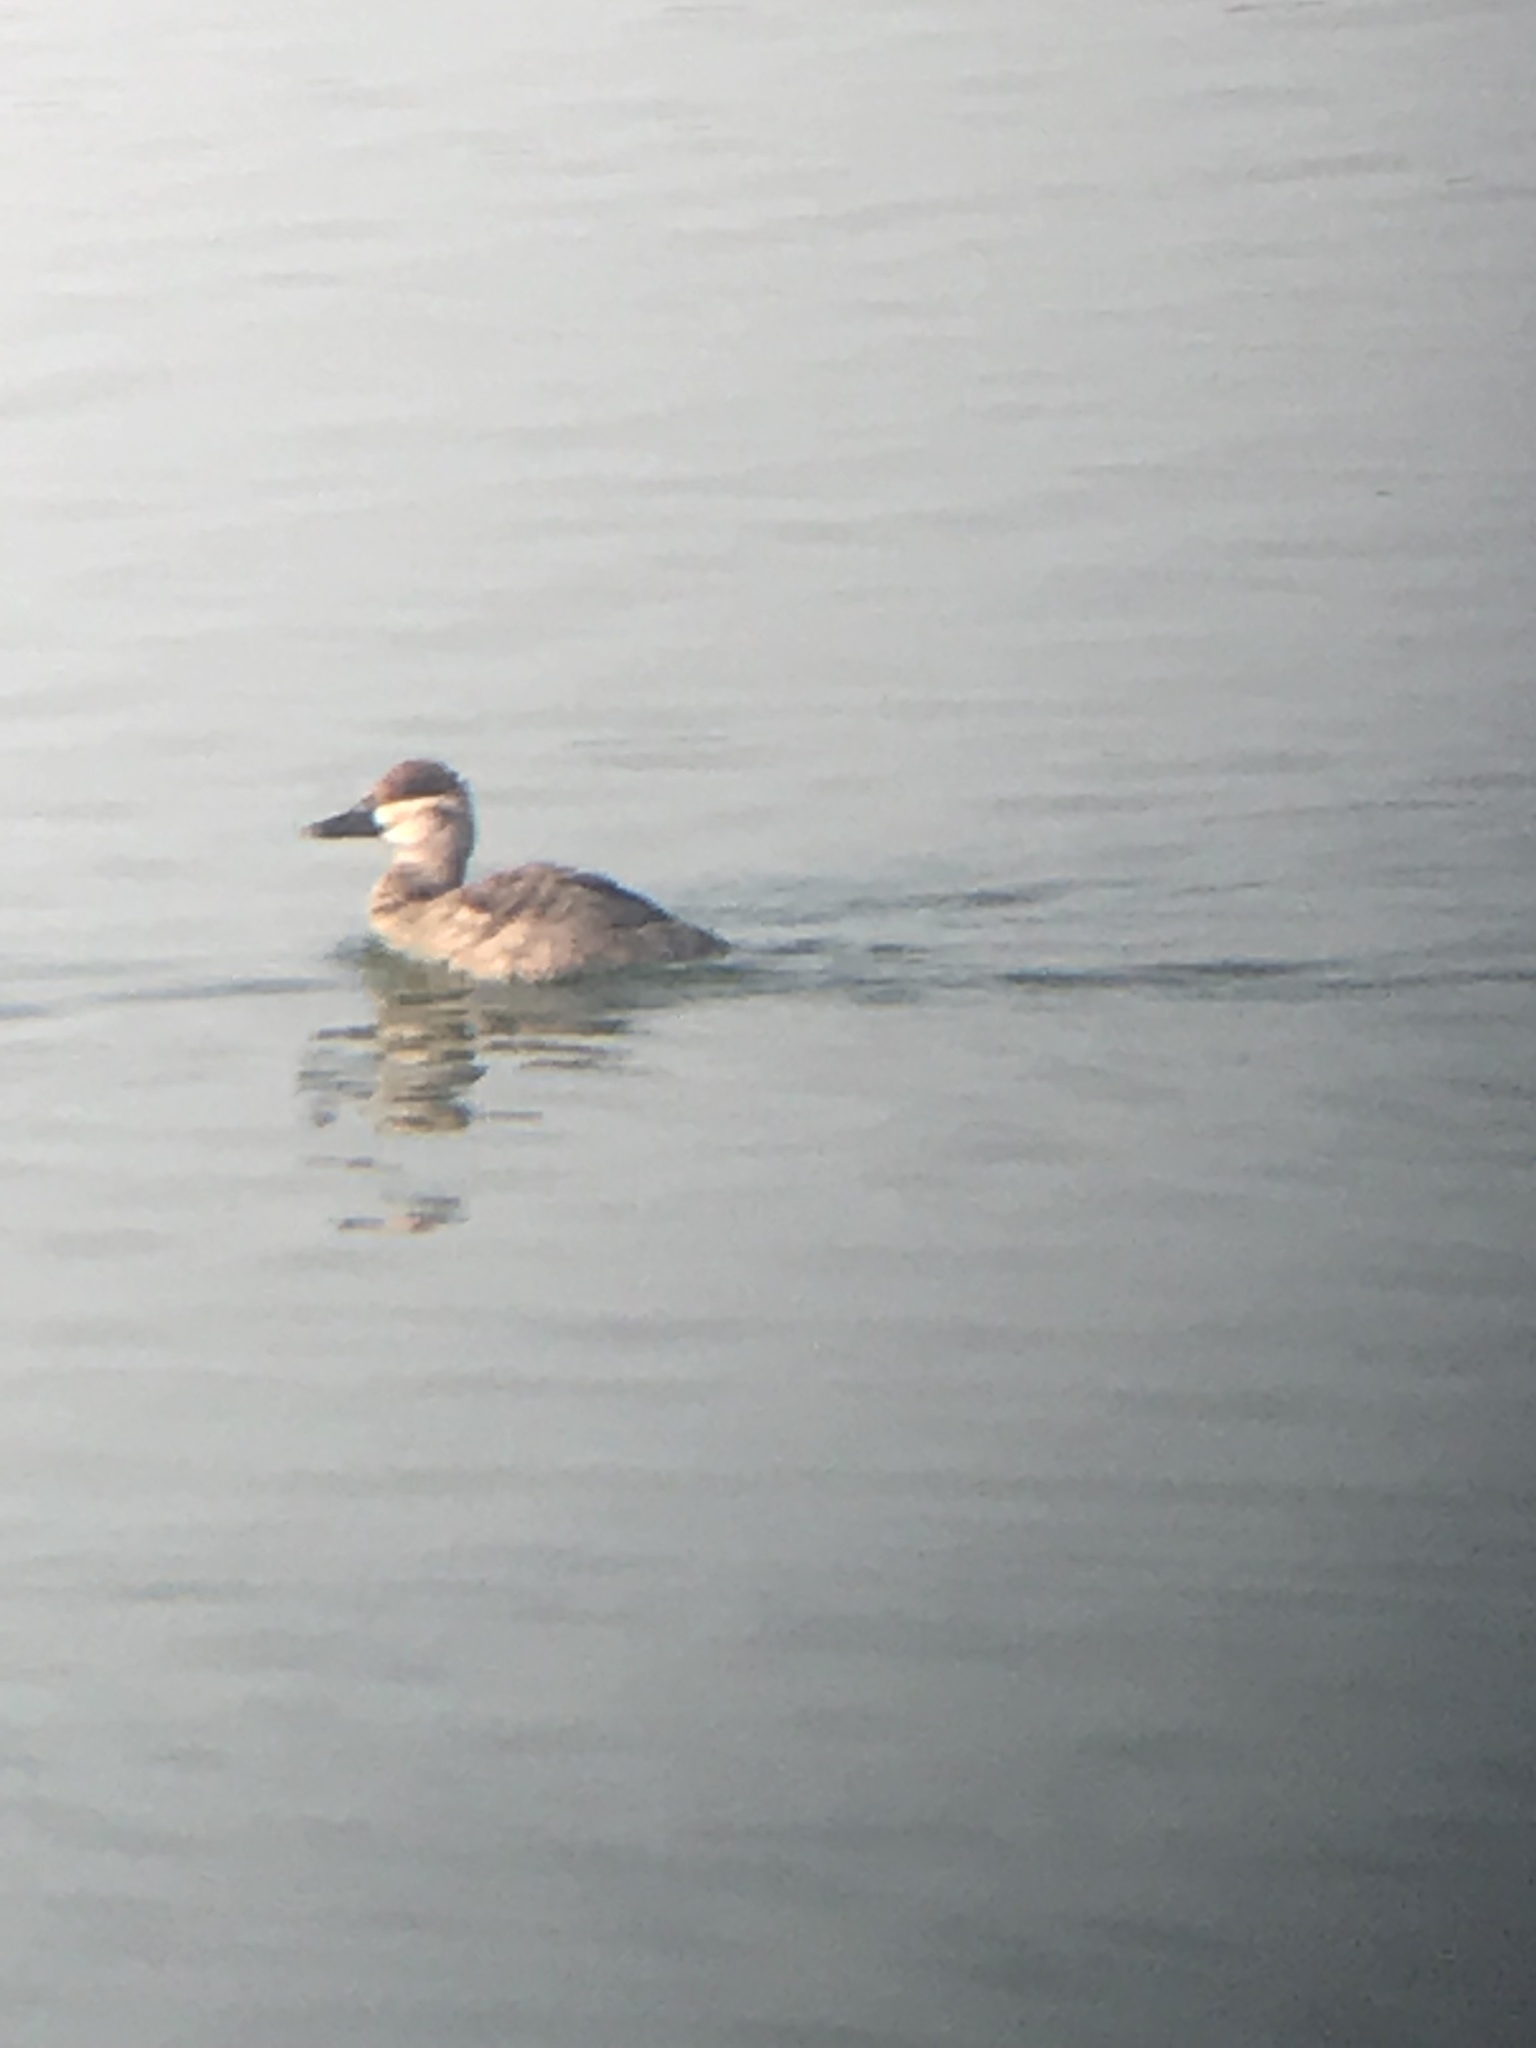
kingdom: Animalia
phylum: Chordata
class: Aves
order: Anseriformes
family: Anatidae
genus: Oxyura
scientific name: Oxyura jamaicensis
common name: Ruddy duck
